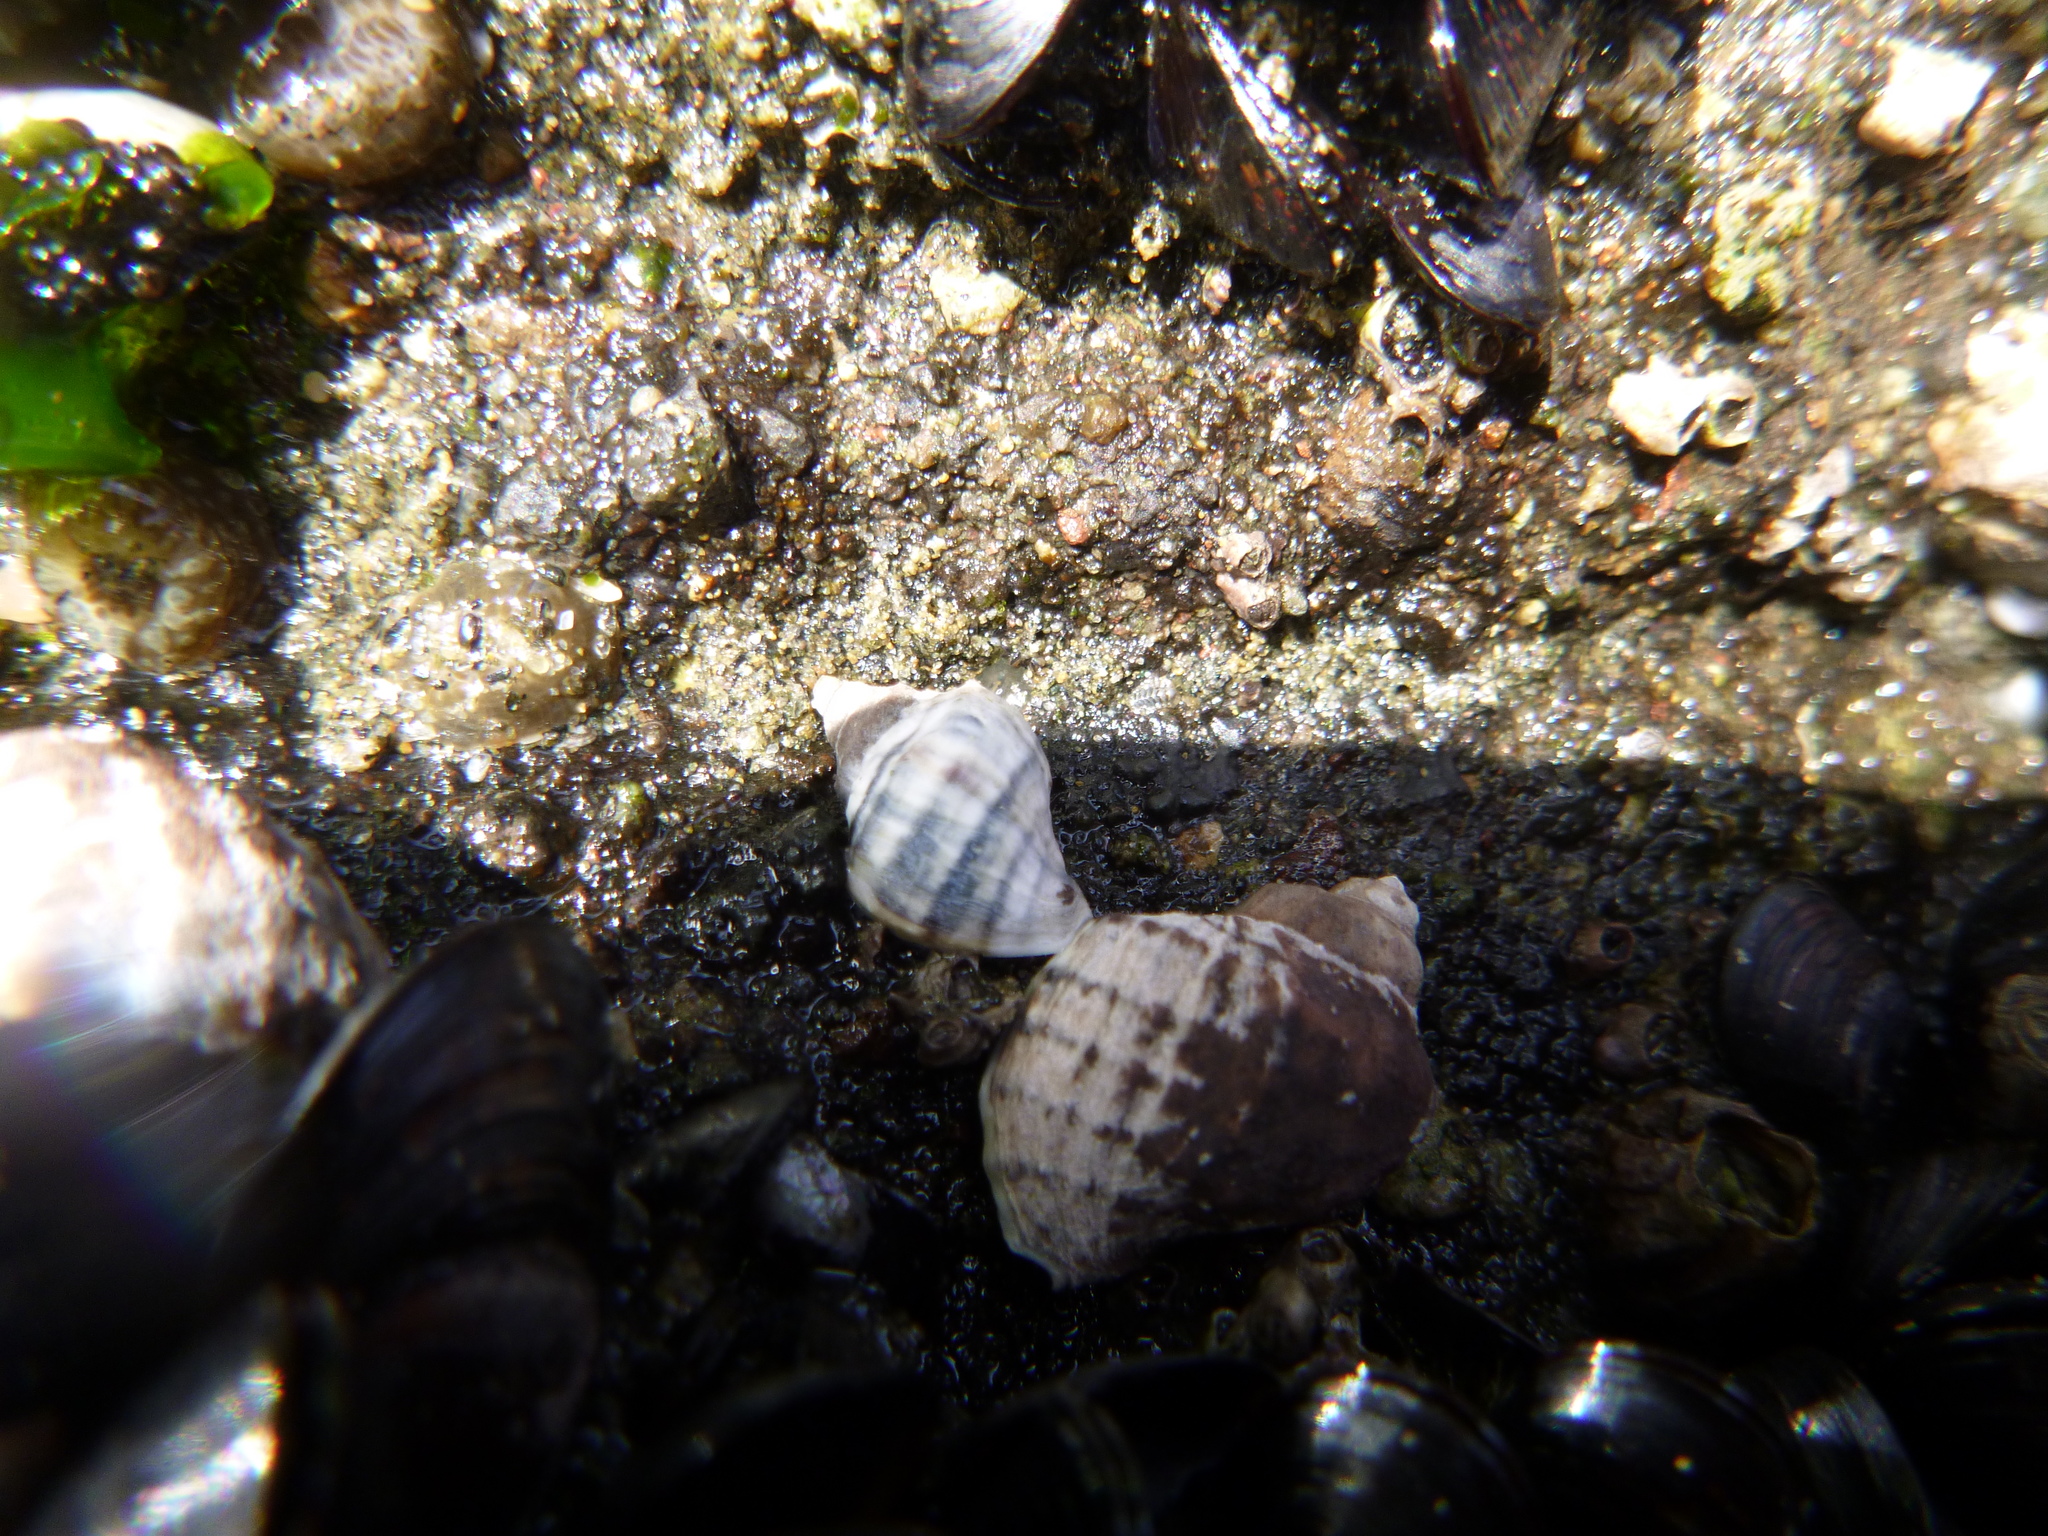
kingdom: Animalia
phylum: Mollusca
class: Gastropoda
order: Neogastropoda
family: Muricidae
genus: Haustrum
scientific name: Haustrum scobina
